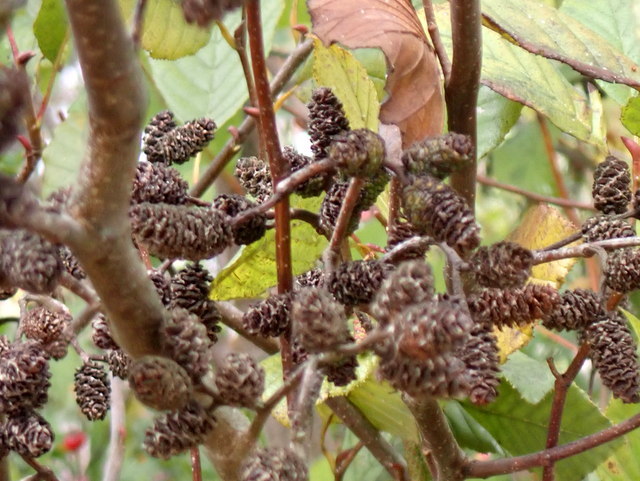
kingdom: Plantae
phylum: Tracheophyta
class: Magnoliopsida
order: Fagales
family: Betulaceae
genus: Alnus
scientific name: Alnus serrulata
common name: Hazel alder
